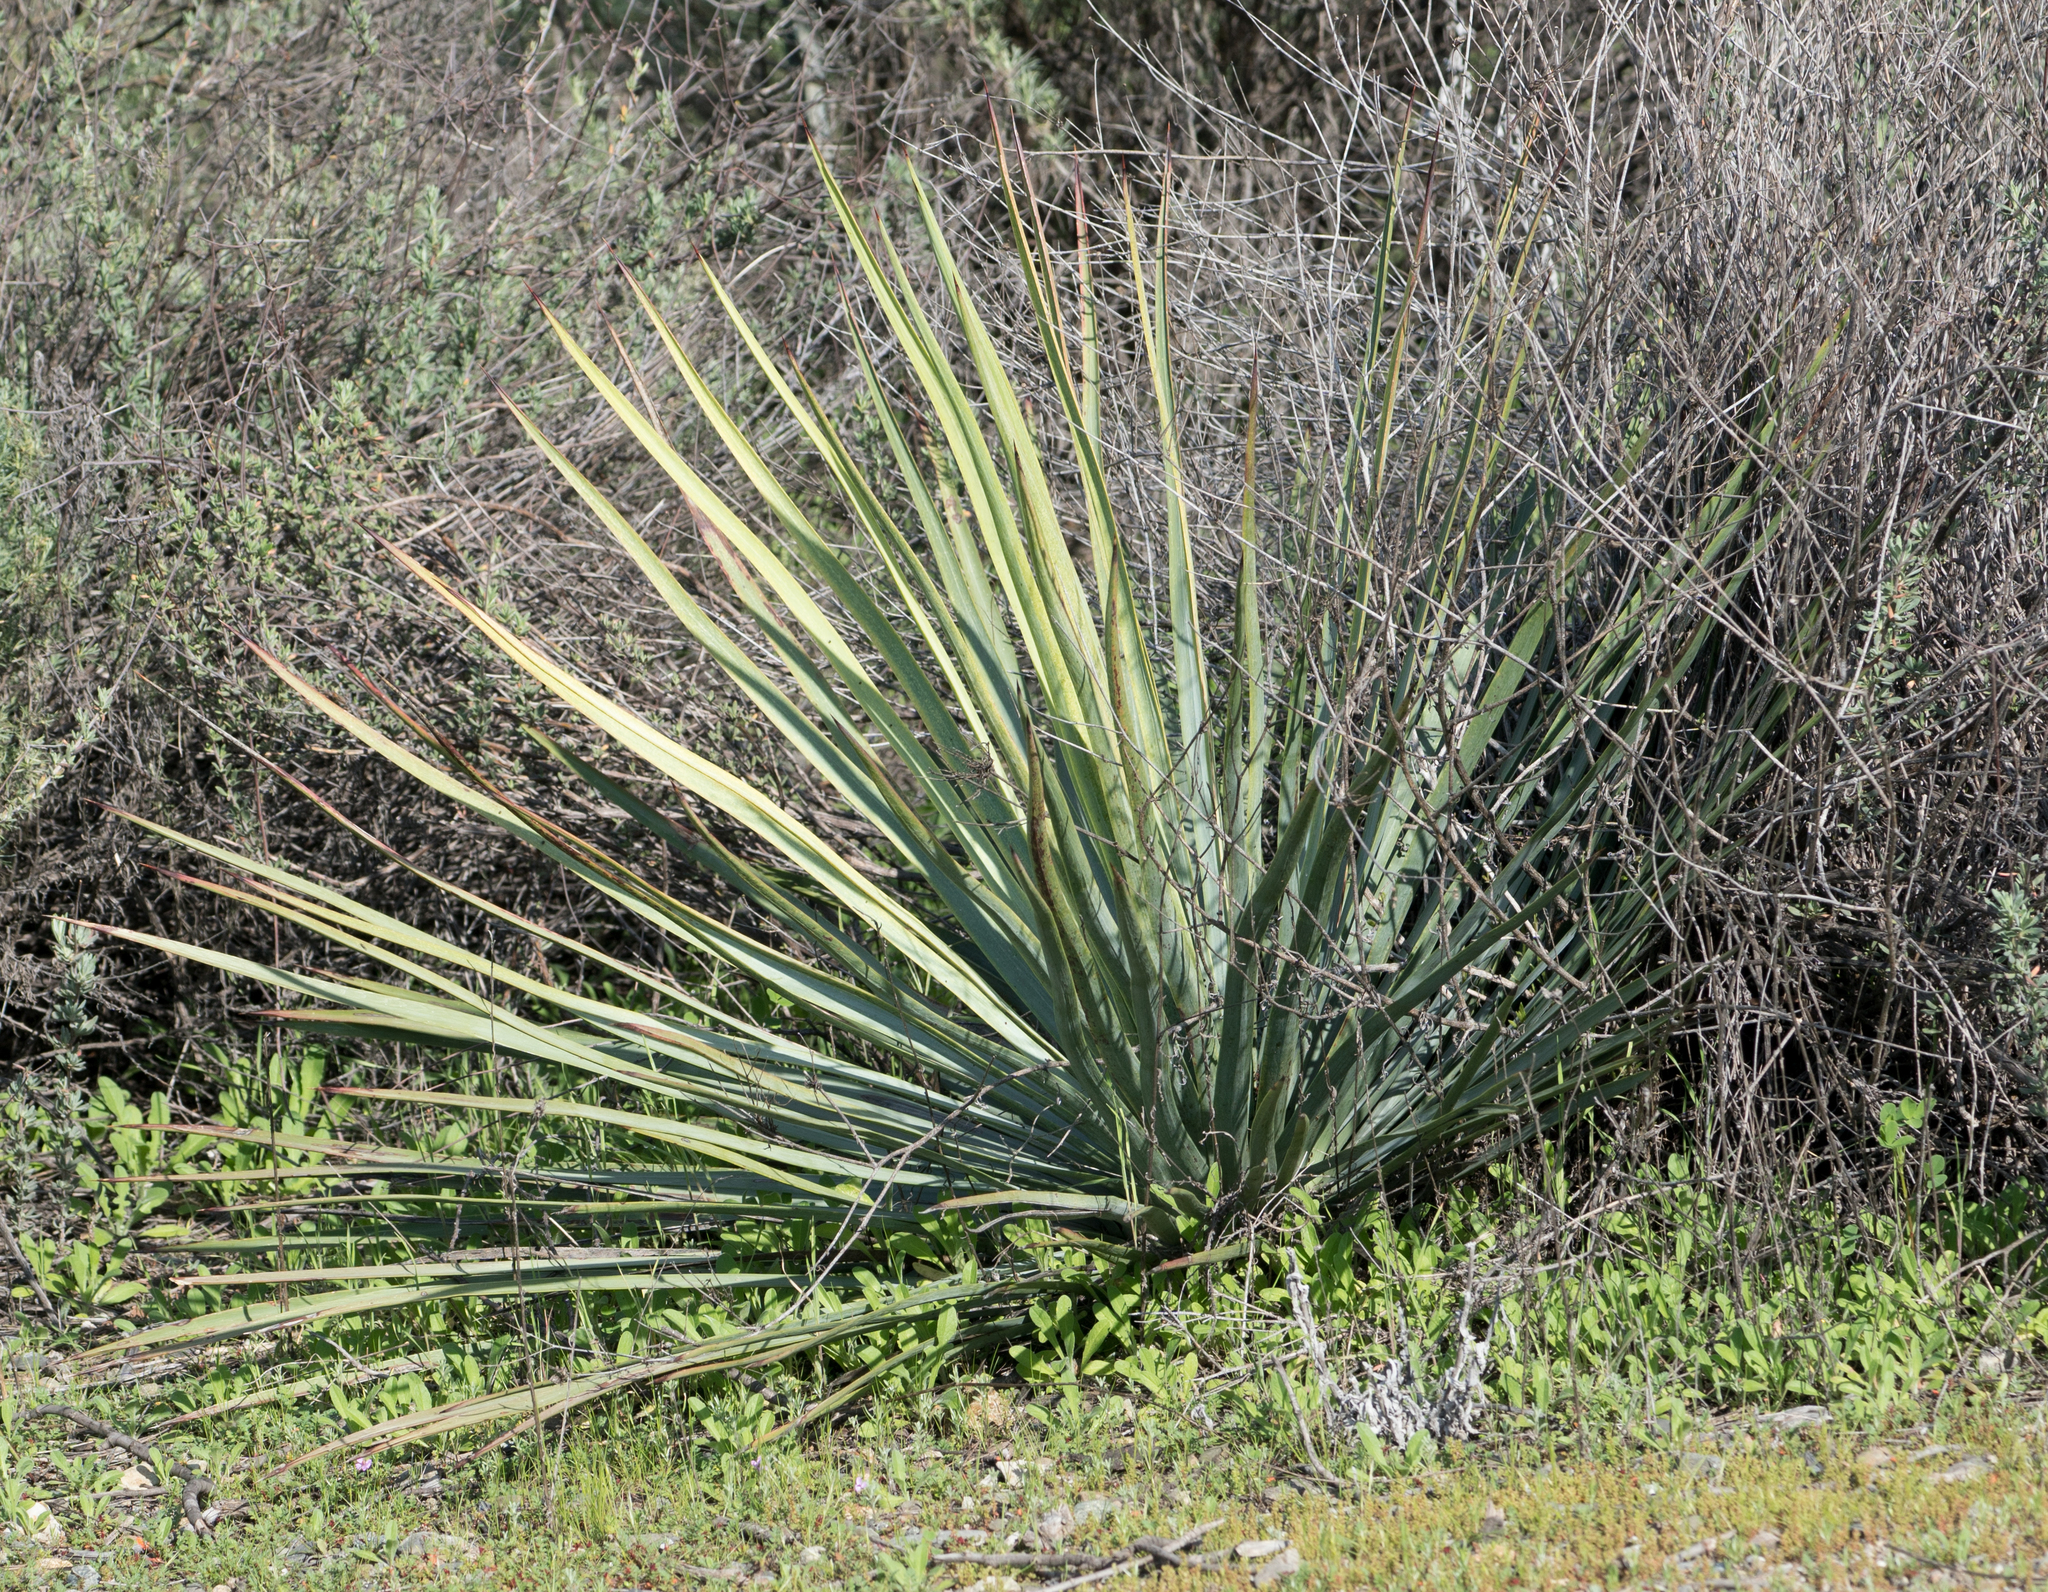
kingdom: Plantae
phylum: Tracheophyta
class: Liliopsida
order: Asparagales
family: Asparagaceae
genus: Hesperoyucca
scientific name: Hesperoyucca whipplei
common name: Our lord's-candle
